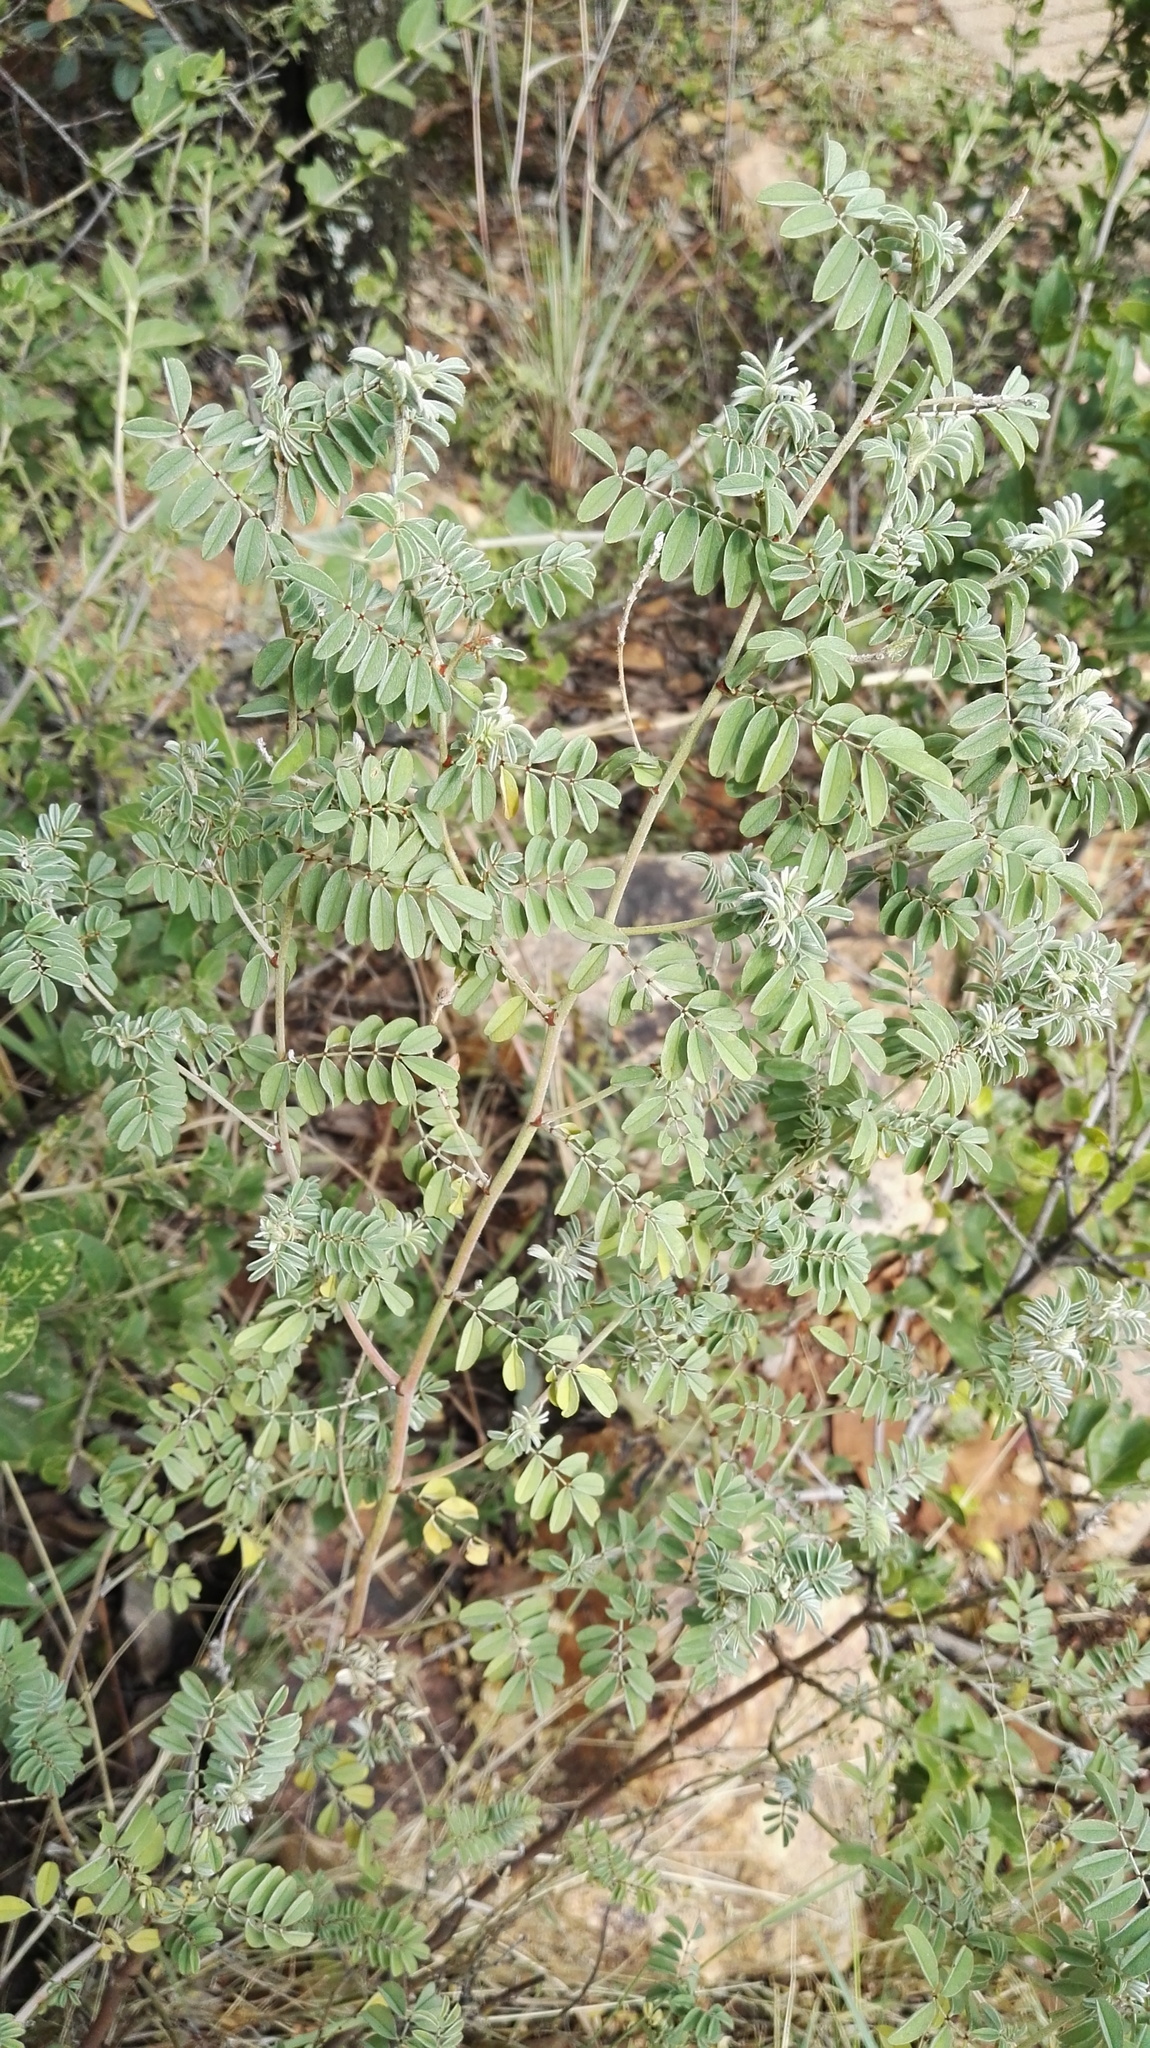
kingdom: Plantae
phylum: Tracheophyta
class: Magnoliopsida
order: Fabales
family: Fabaceae
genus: Indigofera
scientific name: Indigofera melanadenia
